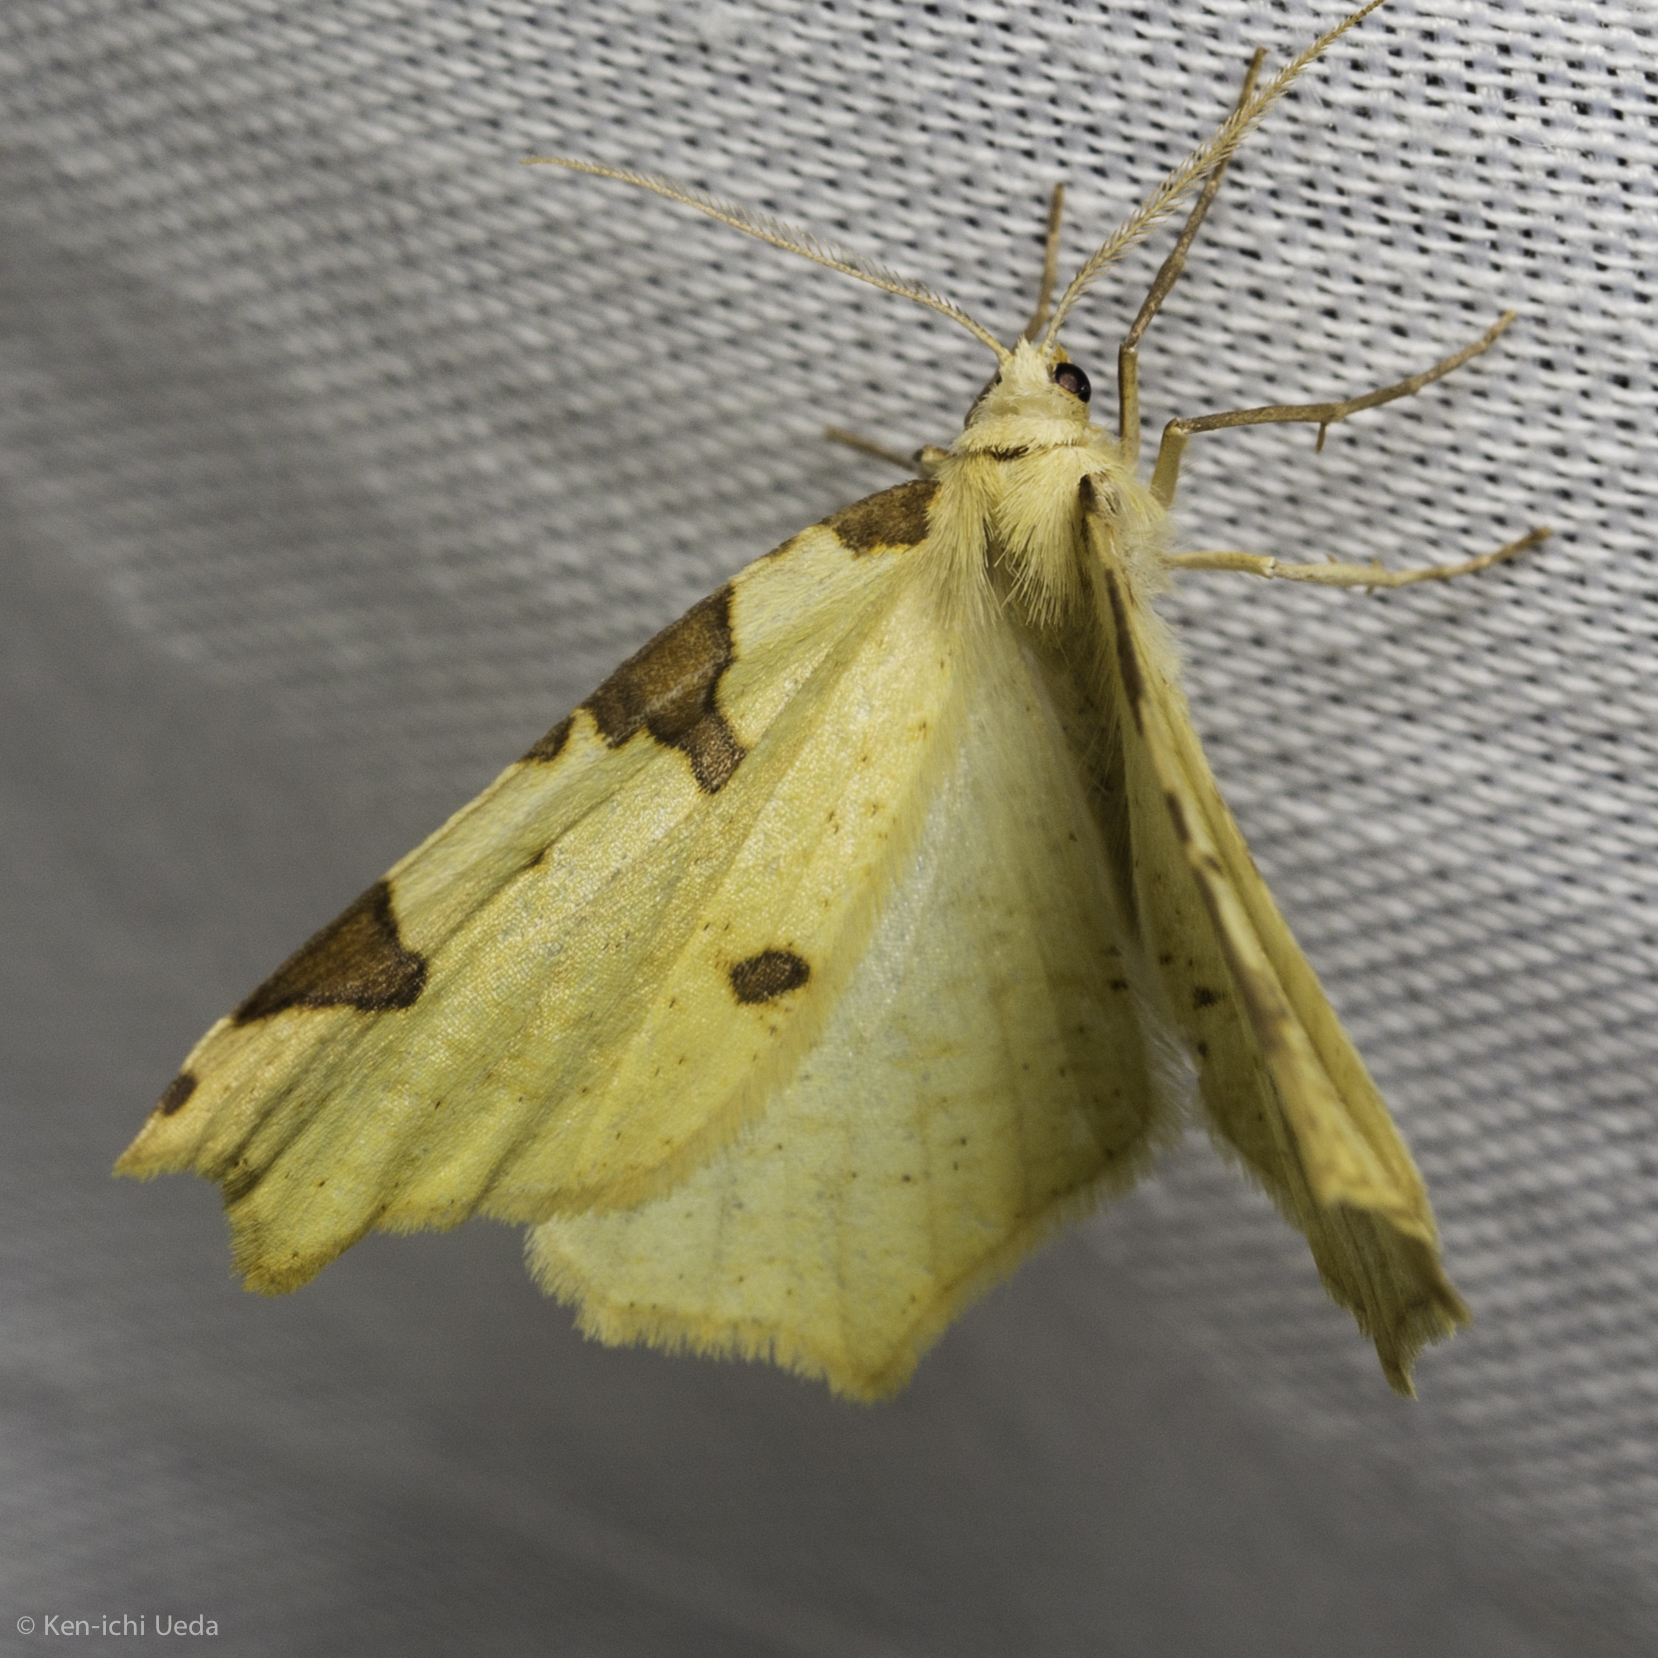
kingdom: Animalia
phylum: Arthropoda
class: Insecta
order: Lepidoptera
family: Geometridae
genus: Neoterpes
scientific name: Neoterpes trianguliferata
